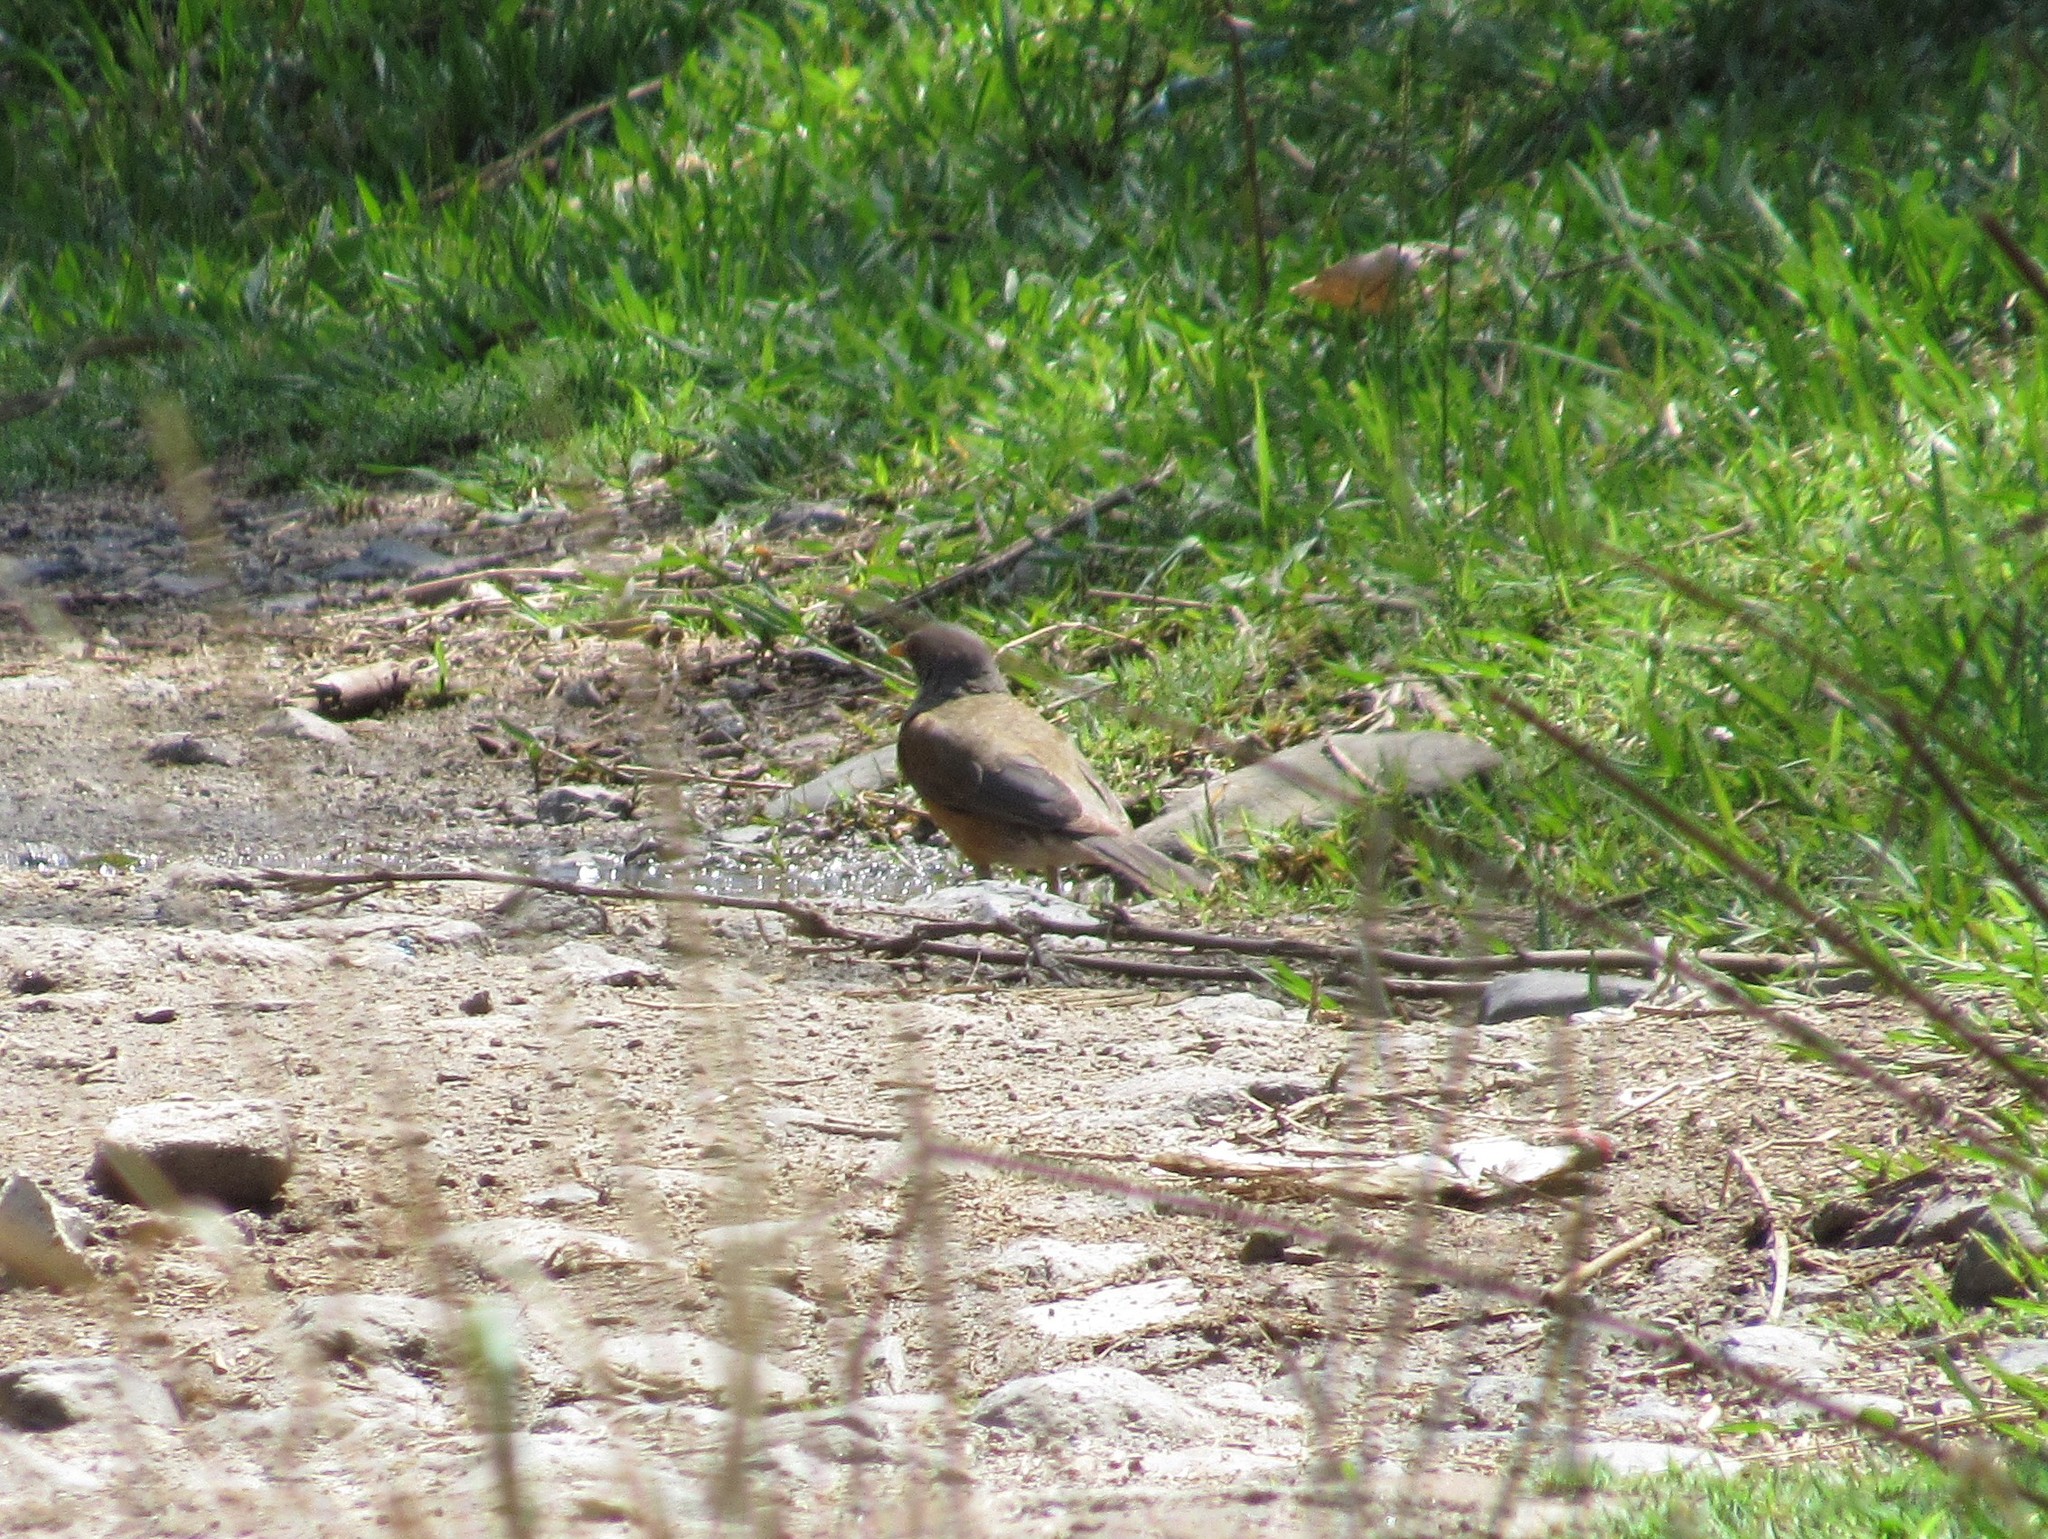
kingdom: Animalia
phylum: Chordata
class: Aves
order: Passeriformes
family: Turdidae
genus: Turdus
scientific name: Turdus rufopalliatus
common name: Rufous-backed robin
